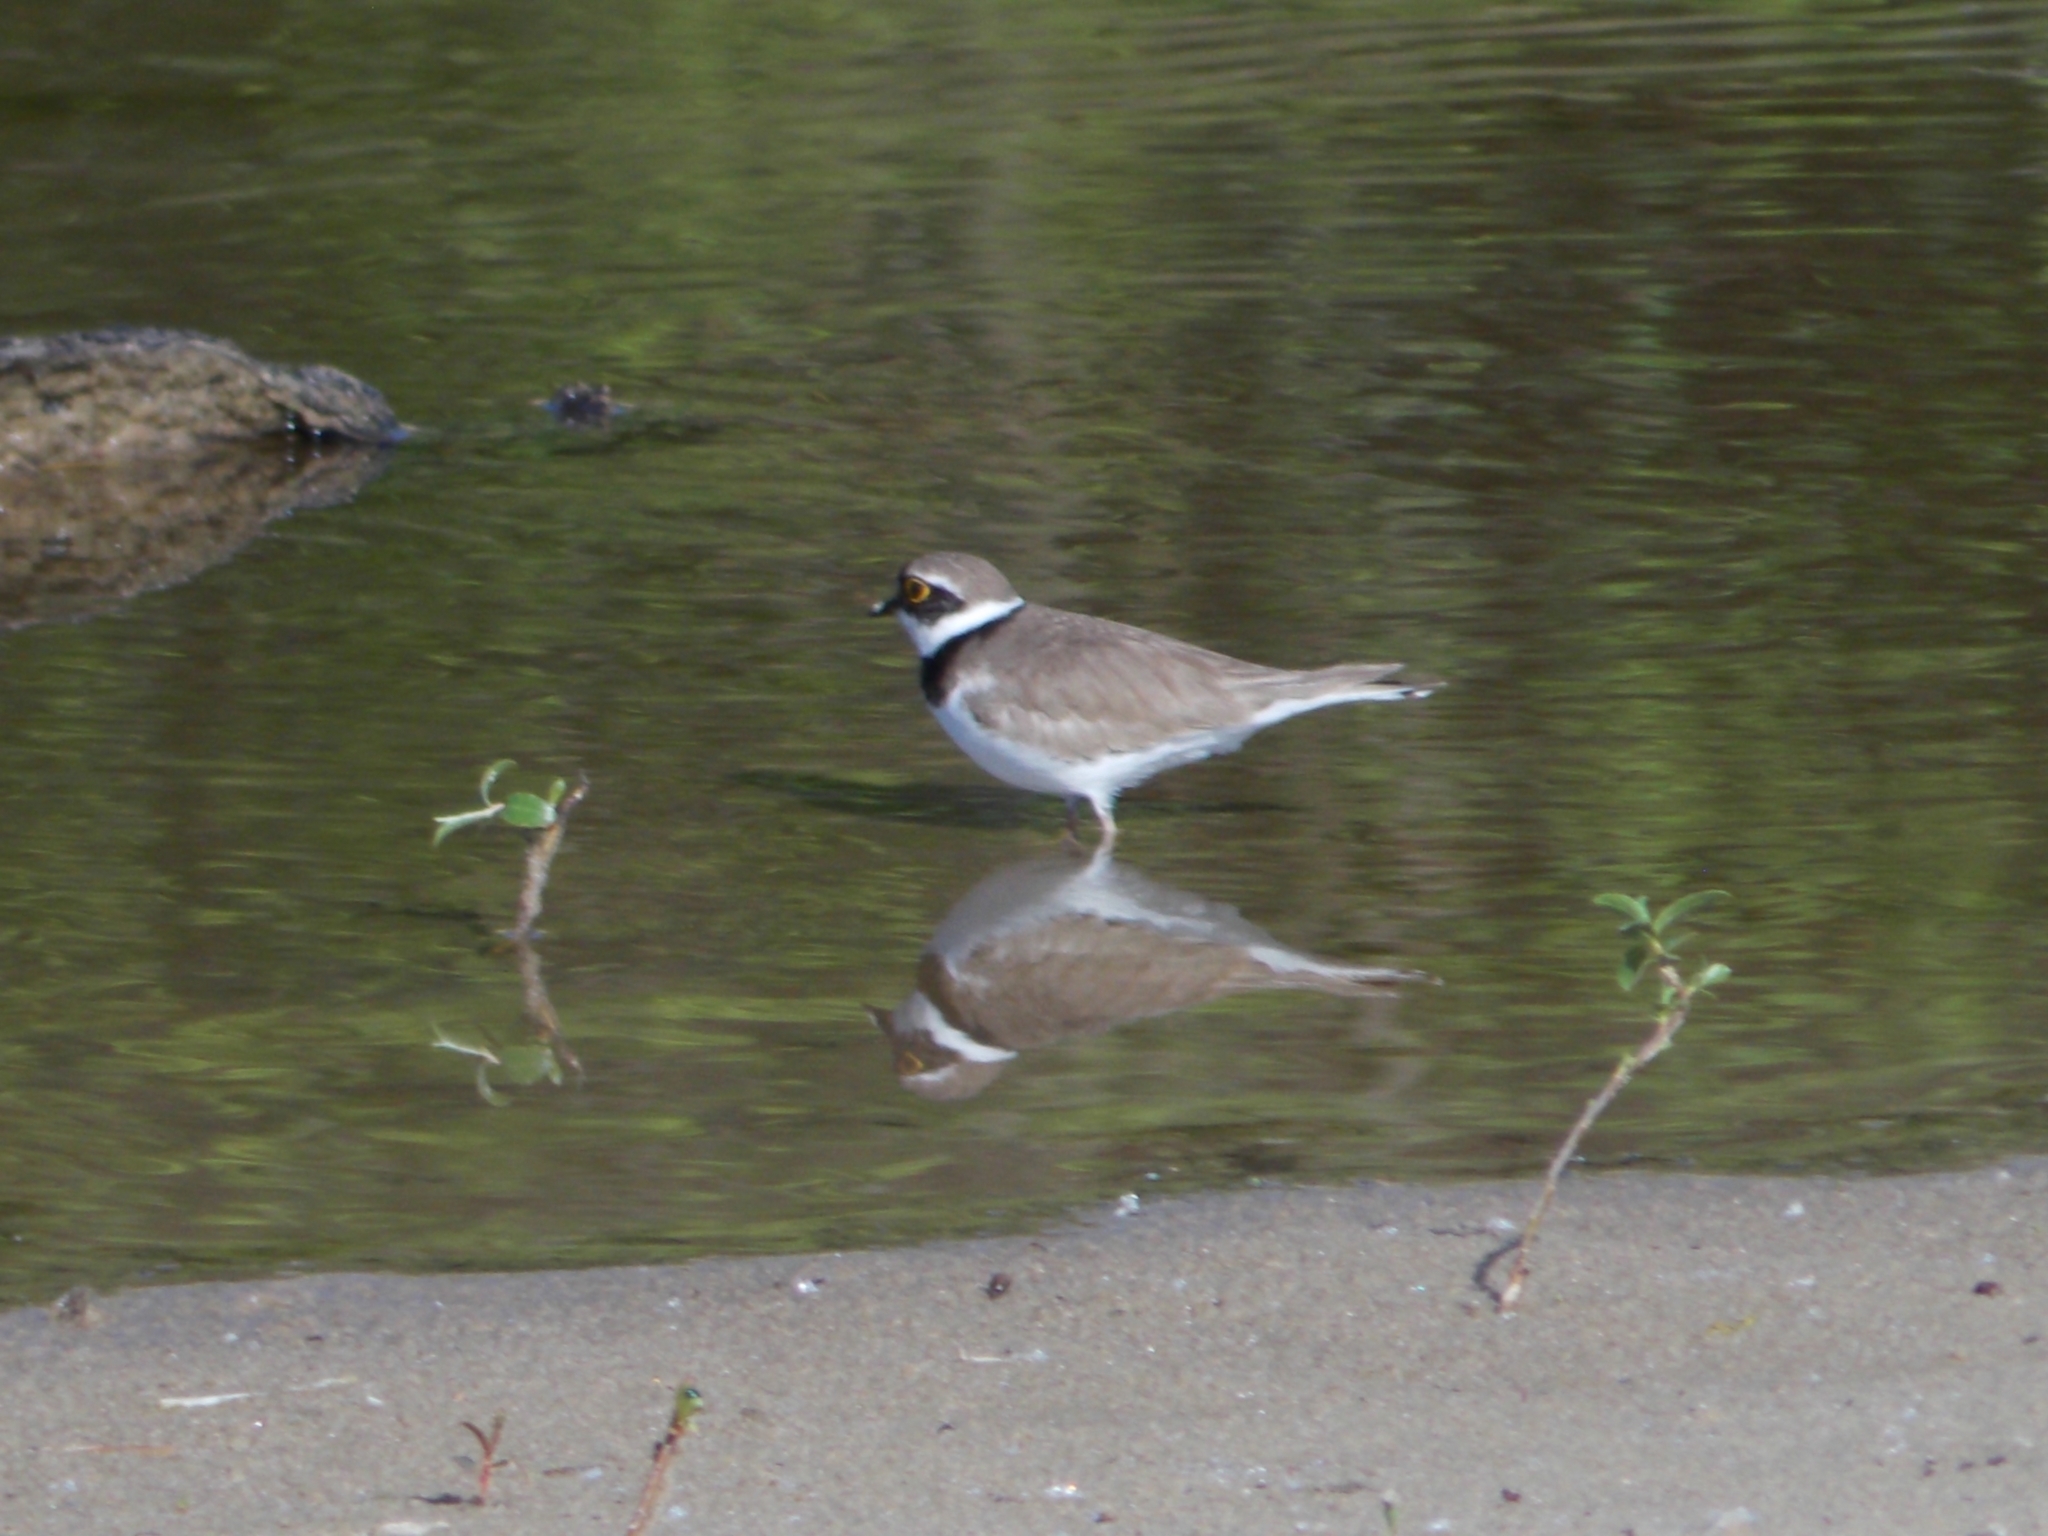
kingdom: Animalia
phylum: Chordata
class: Aves
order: Charadriiformes
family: Charadriidae
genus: Charadrius
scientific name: Charadrius dubius
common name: Little ringed plover
